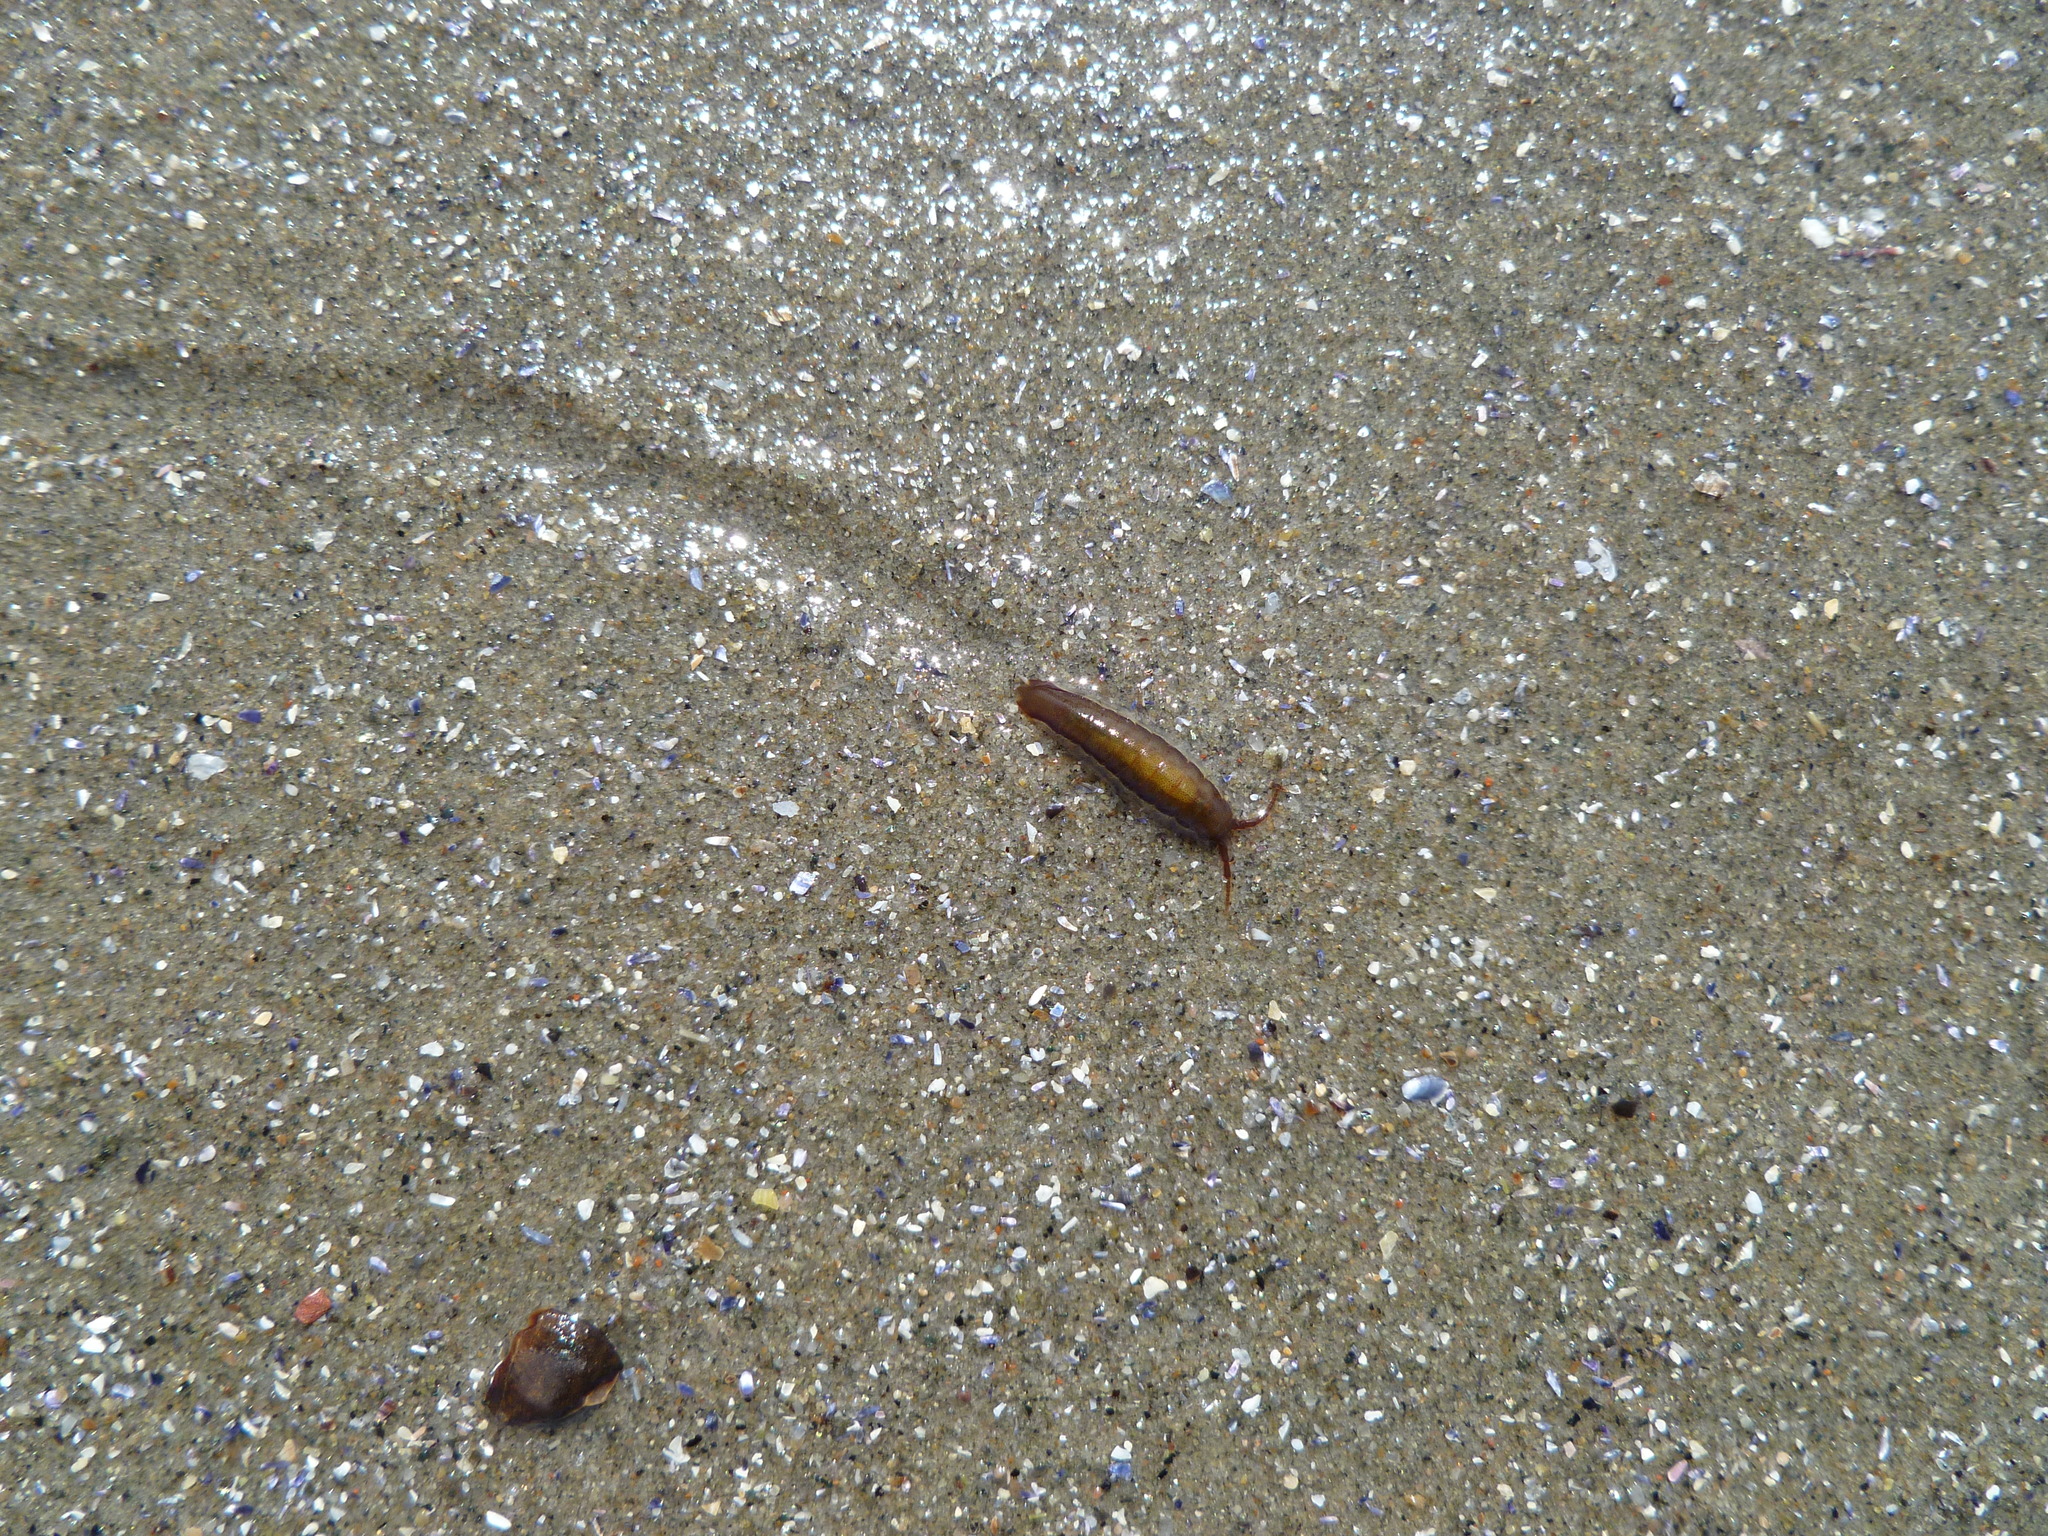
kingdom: Animalia
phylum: Arthropoda
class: Malacostraca
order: Isopoda
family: Idoteidae
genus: Idotea
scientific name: Idotea balthica
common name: Baltic isopod
